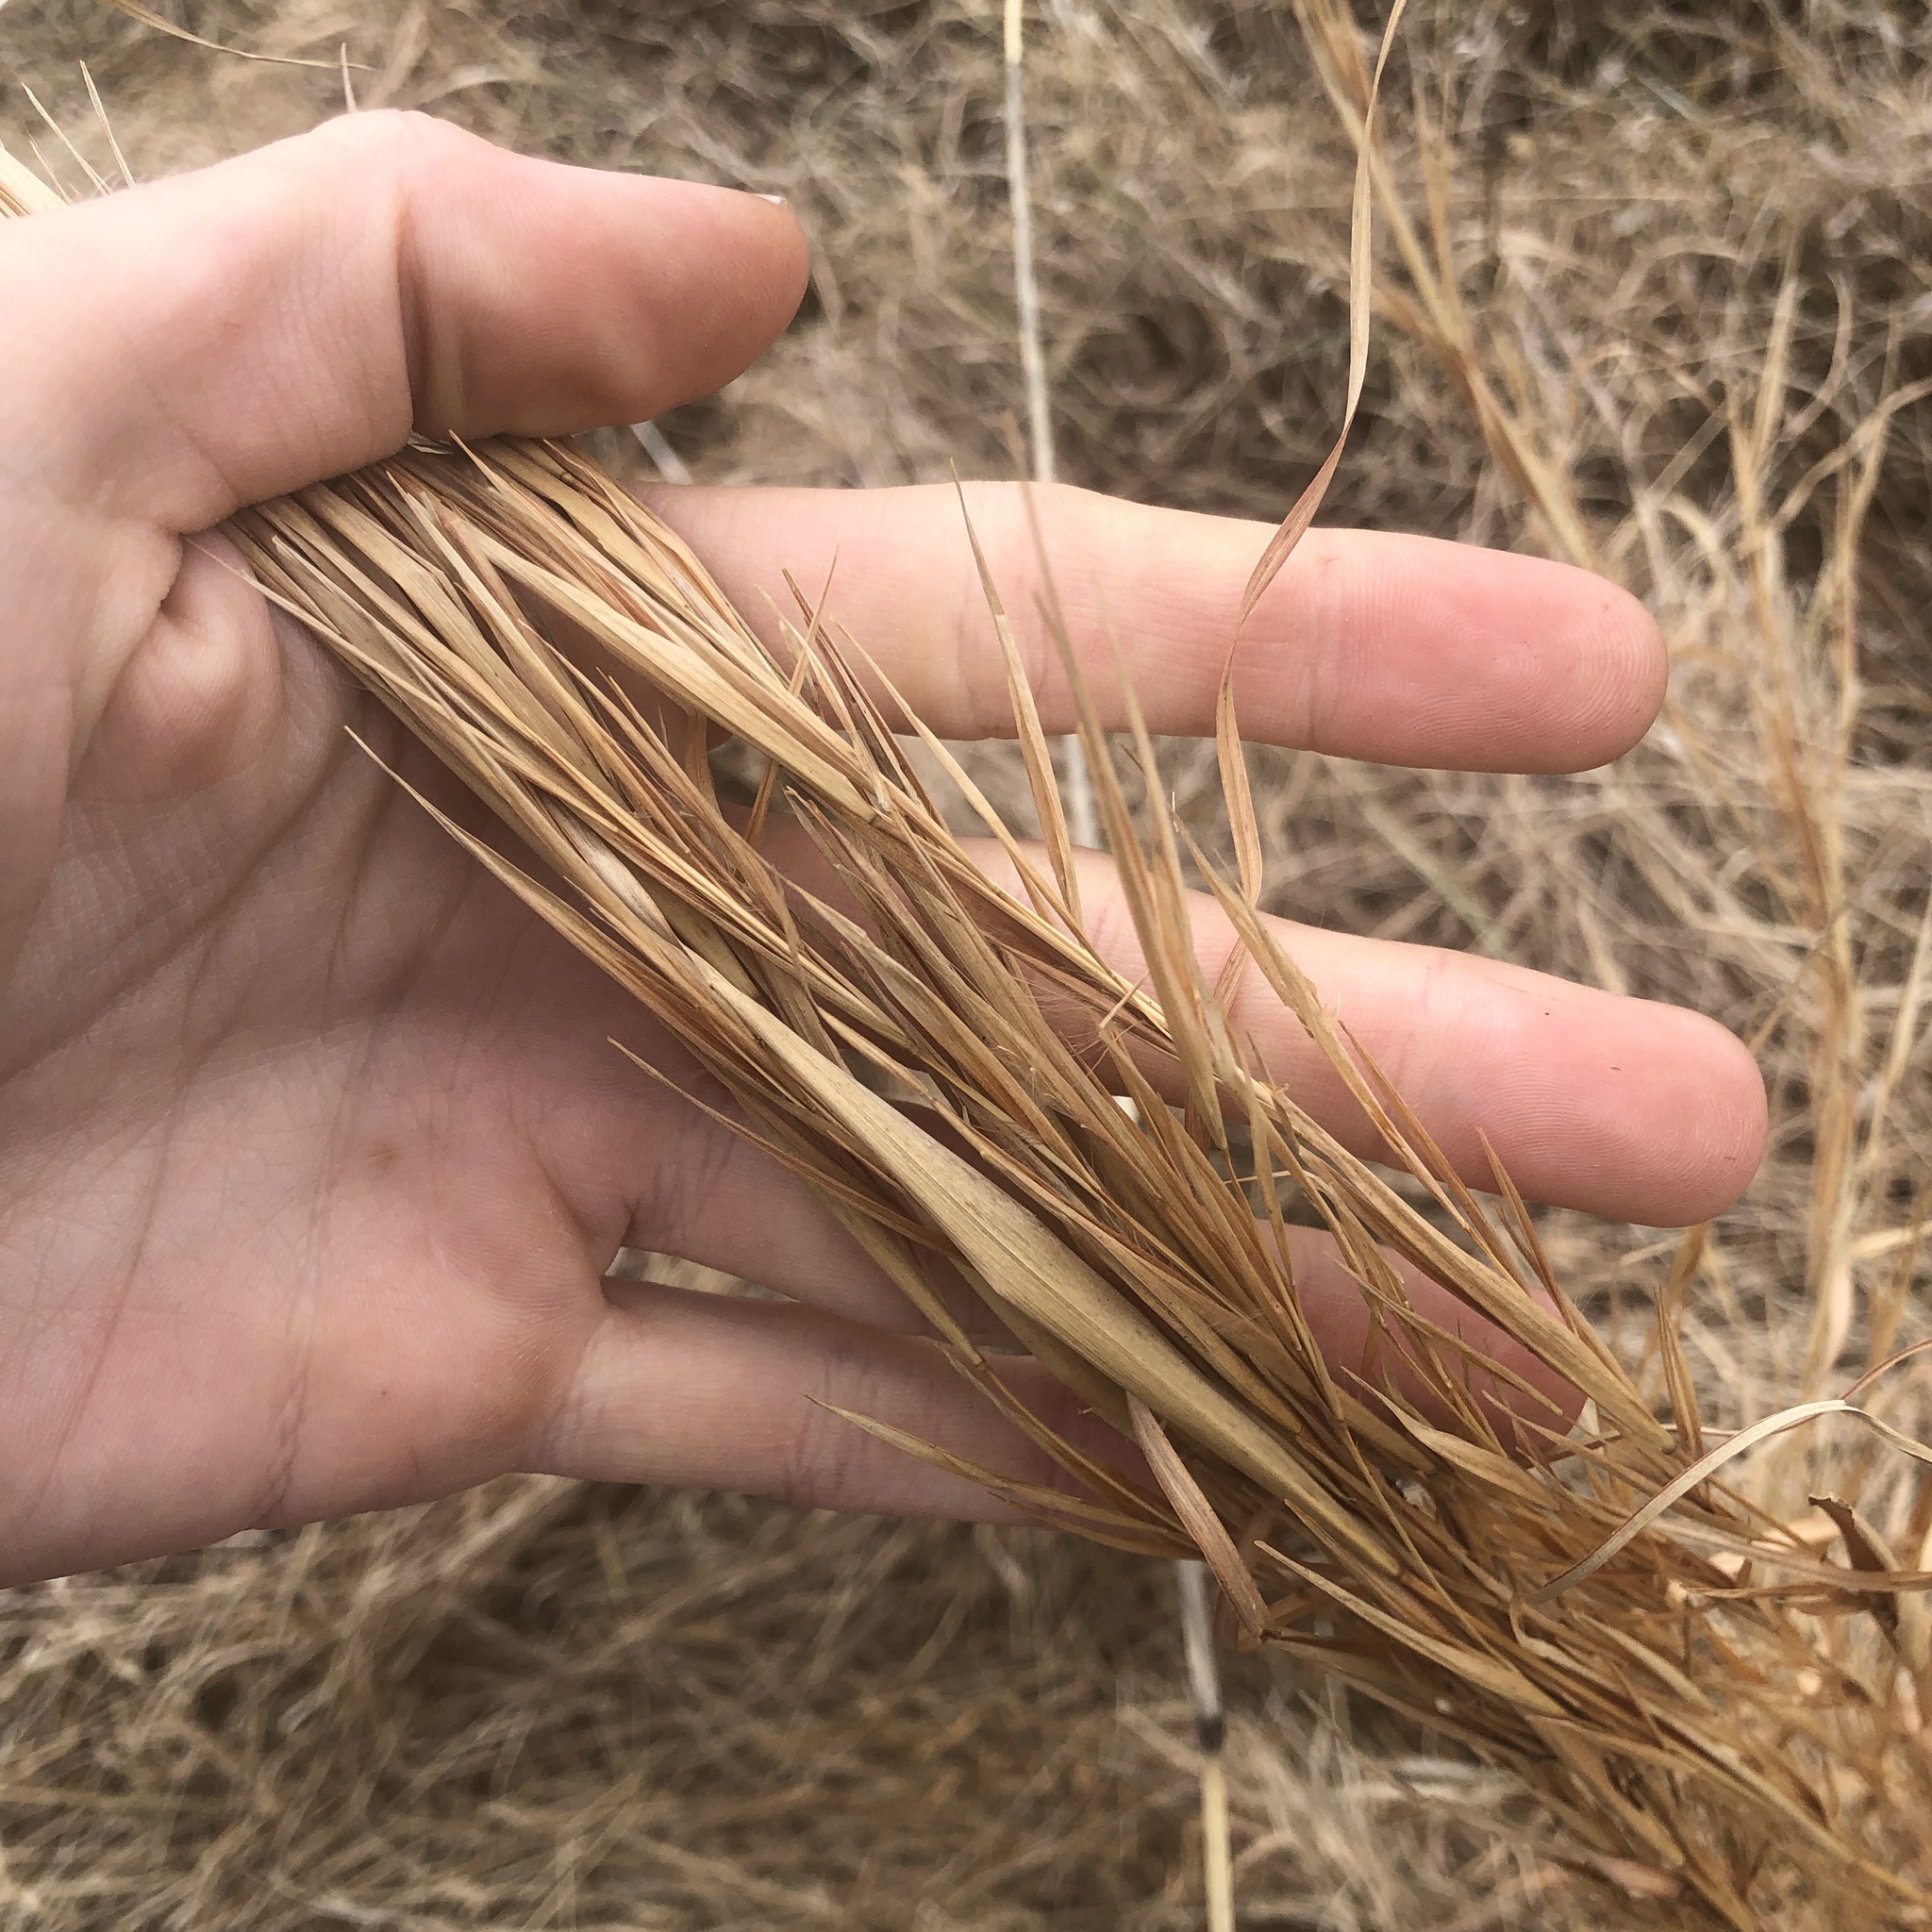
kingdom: Plantae
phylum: Tracheophyta
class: Liliopsida
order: Poales
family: Poaceae
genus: Andropogon
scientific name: Andropogon virginicus
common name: Broomsedge bluestem
